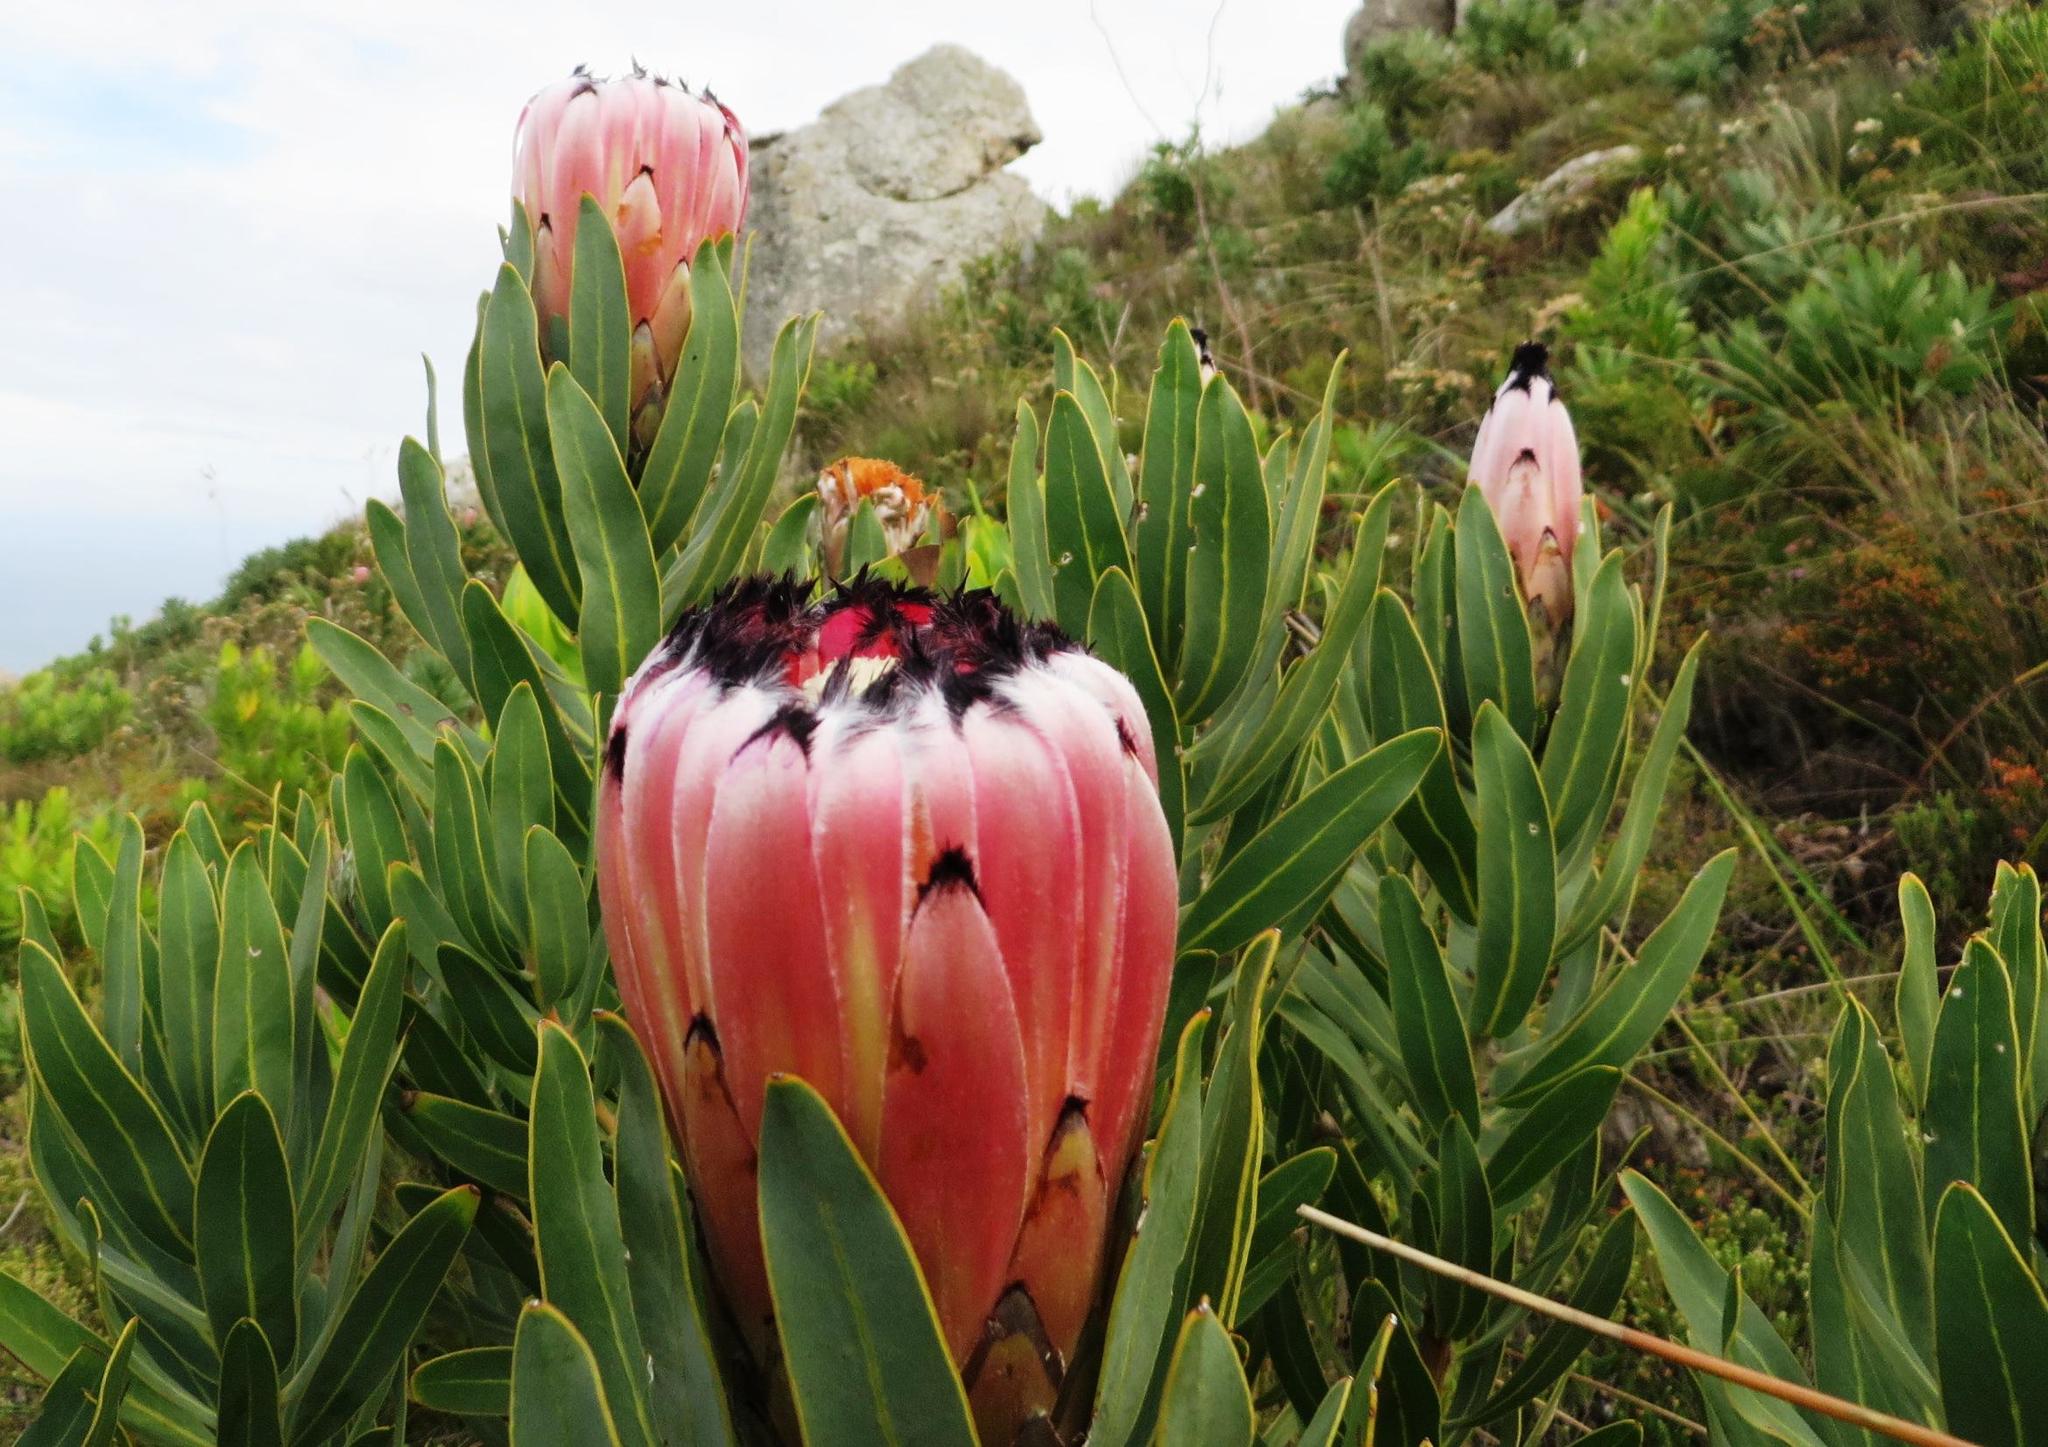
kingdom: Plantae
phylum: Tracheophyta
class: Magnoliopsida
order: Proteales
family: Proteaceae
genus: Protea
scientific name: Protea neriifolia
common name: Blue sugarbush
